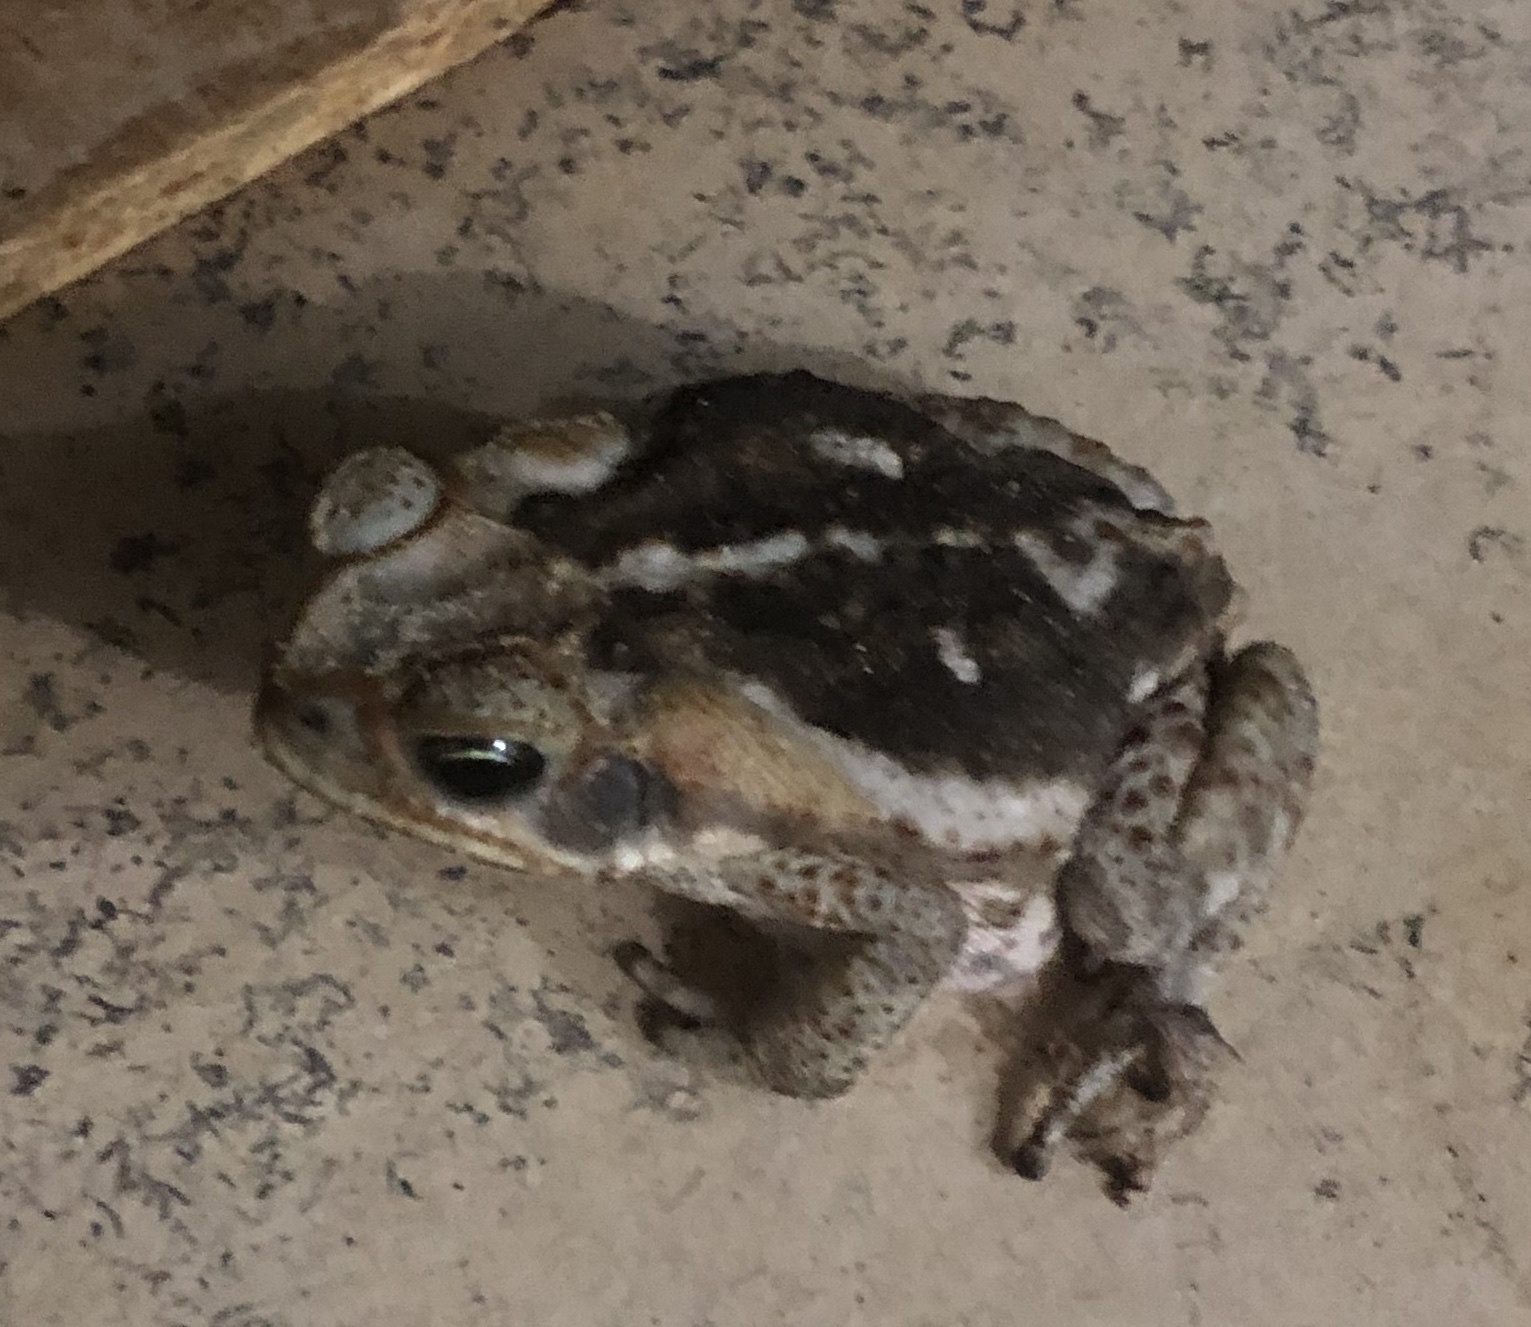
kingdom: Animalia
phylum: Chordata
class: Amphibia
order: Anura
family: Bufonidae
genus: Rhinella
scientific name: Rhinella diptycha
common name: Cope's toad
